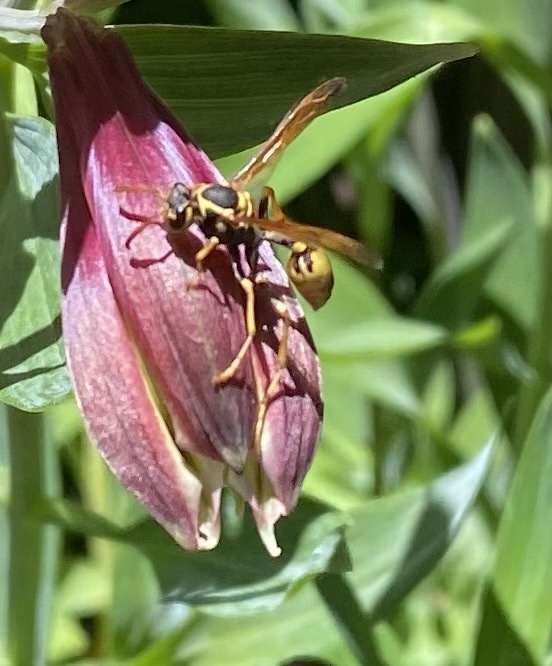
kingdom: Animalia
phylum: Arthropoda
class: Insecta
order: Hymenoptera
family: Vespidae
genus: Mischocyttarus
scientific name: Mischocyttarus flavitarsis
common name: Wasp
